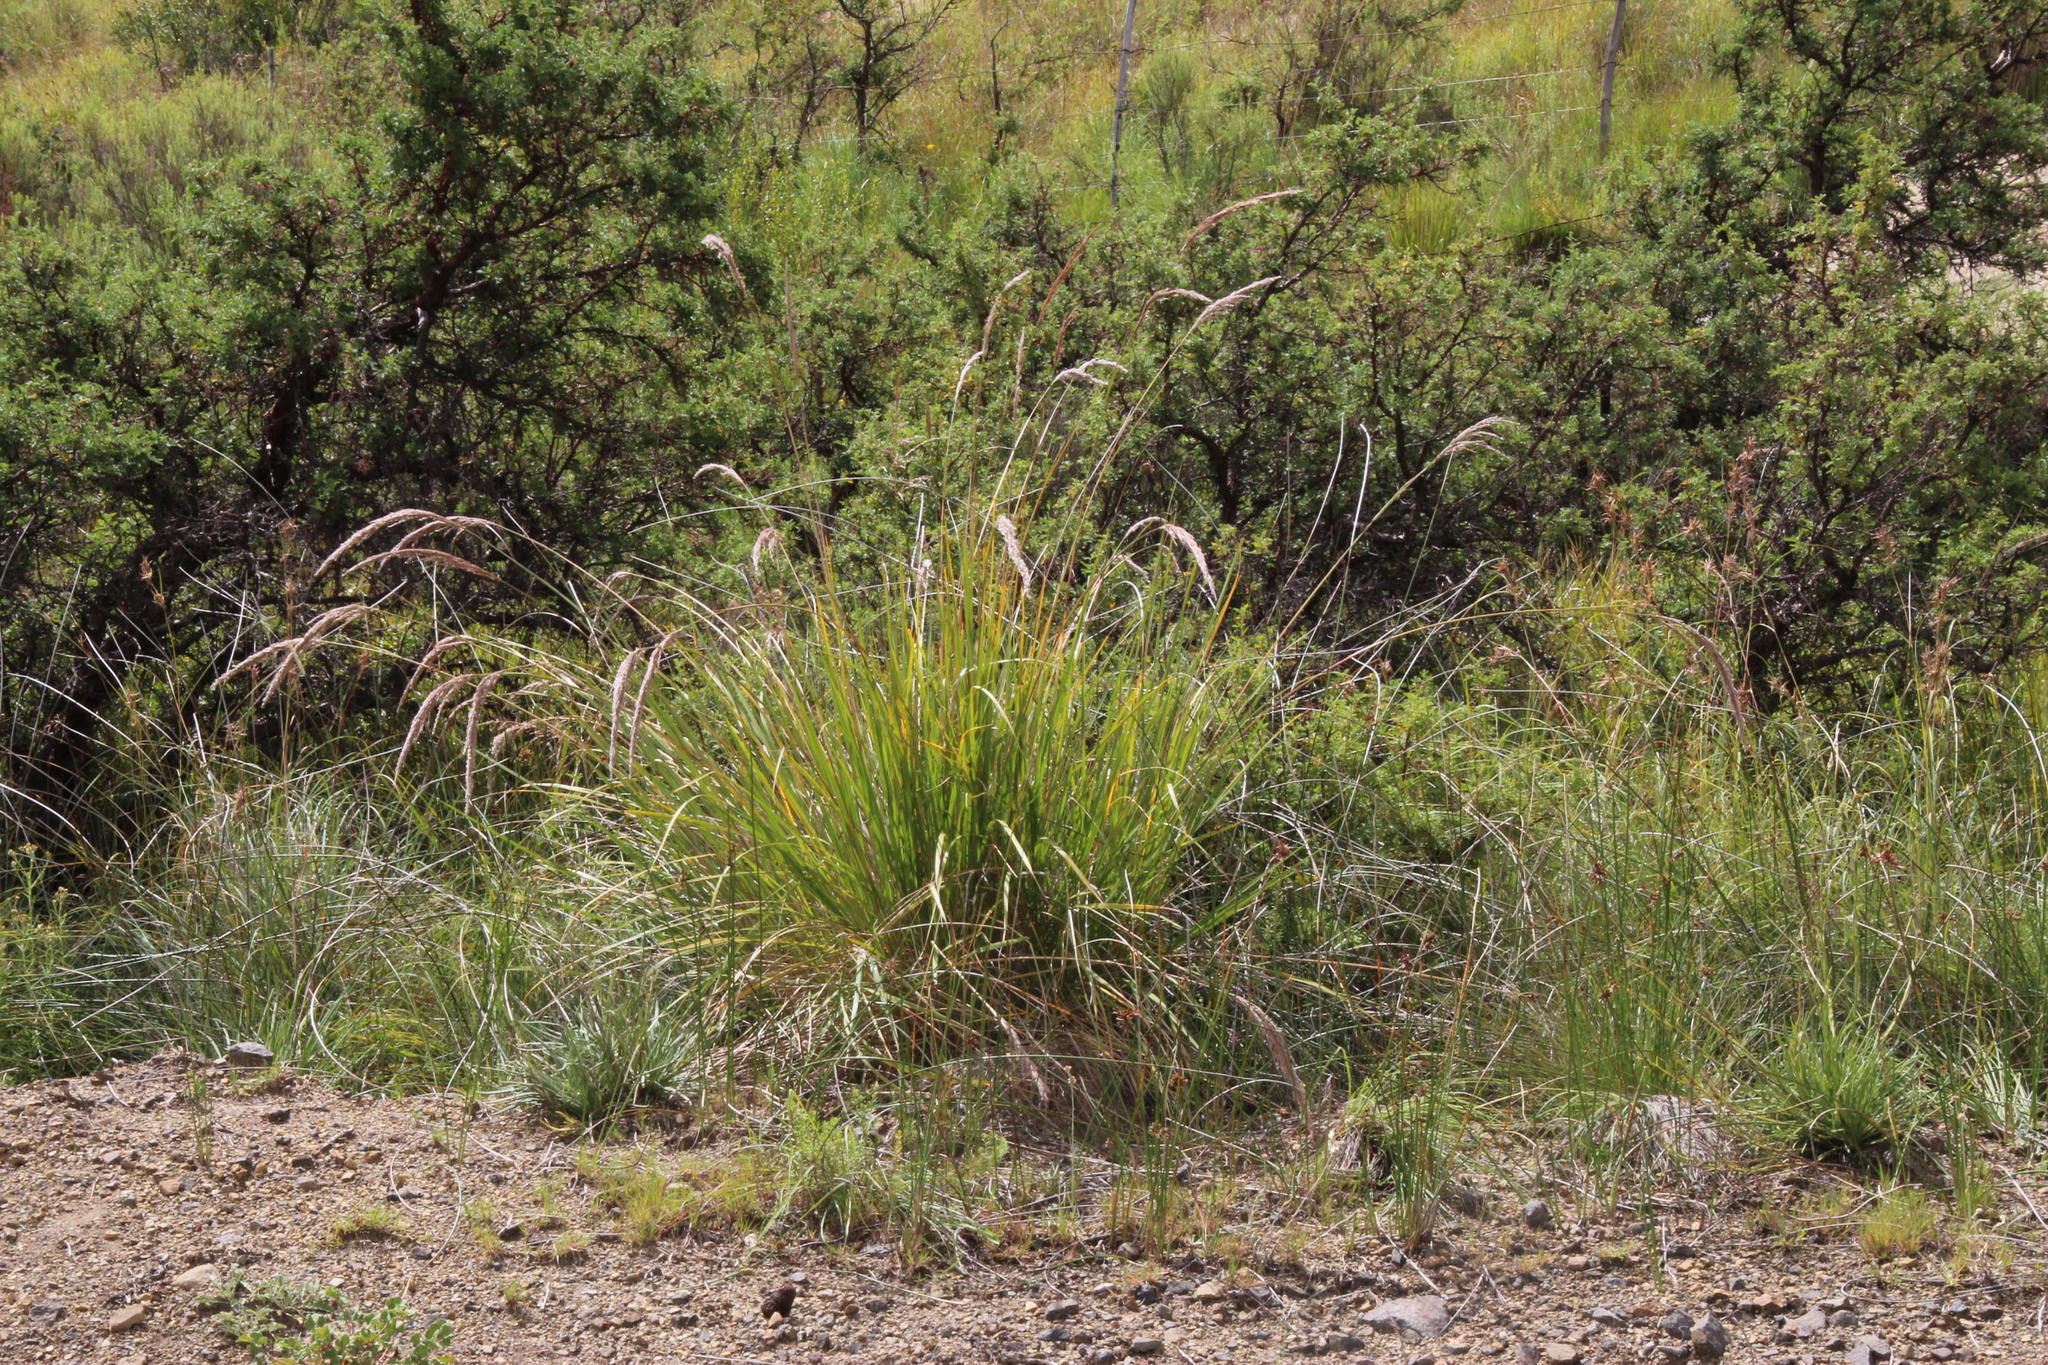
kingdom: Plantae
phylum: Tracheophyta
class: Liliopsida
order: Poales
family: Poaceae
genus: Miscanthus
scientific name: Miscanthus ecklonii
